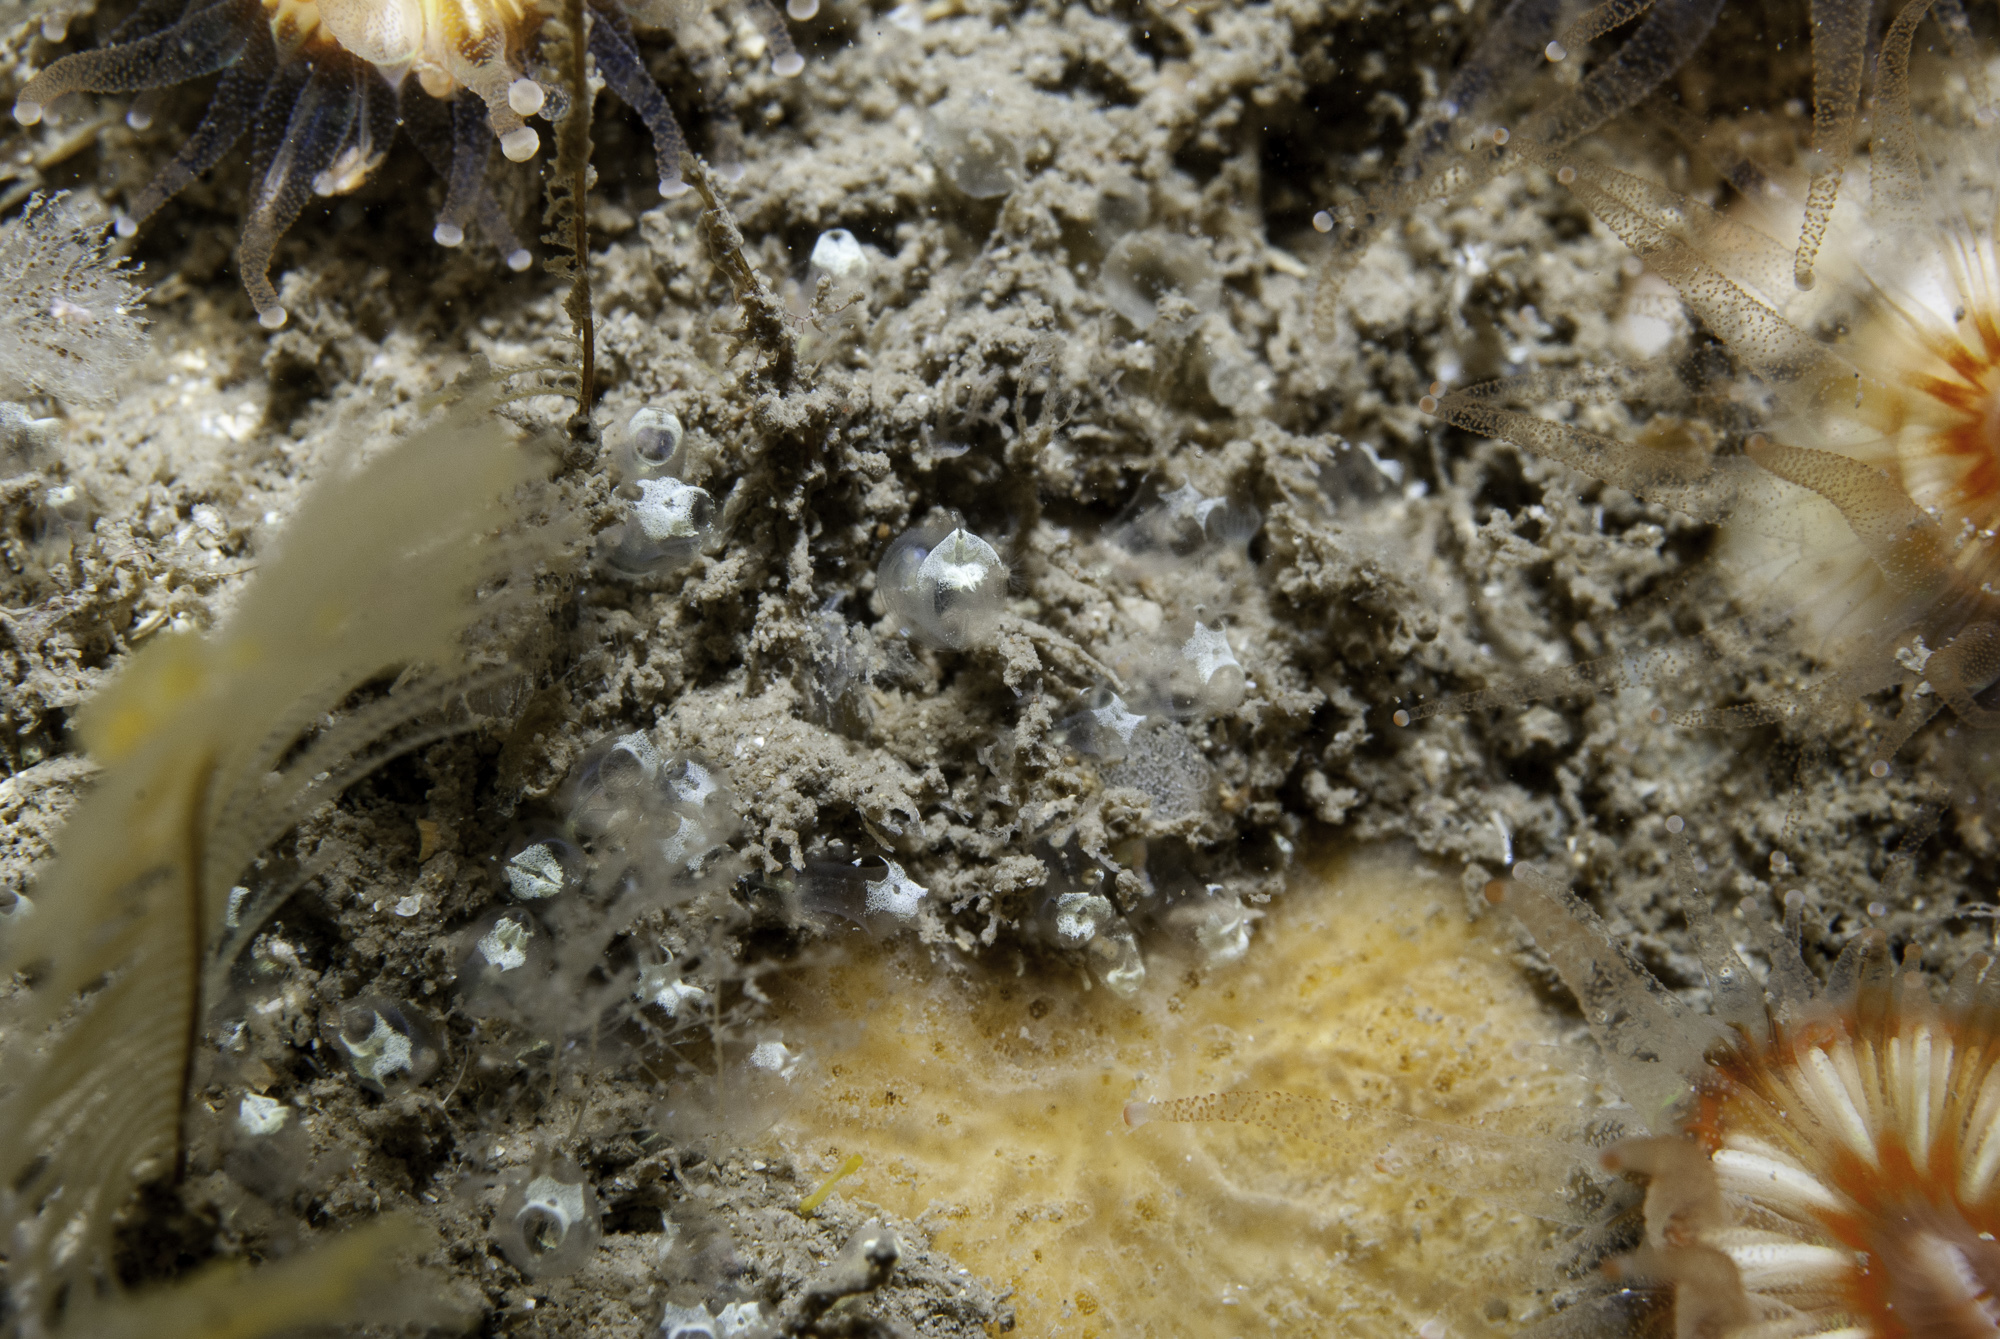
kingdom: Animalia
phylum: Chordata
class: Ascidiacea
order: Aplousobranchia
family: Clavelinidae
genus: Pycnoclavella
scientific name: Pycnoclavella stolonialis
